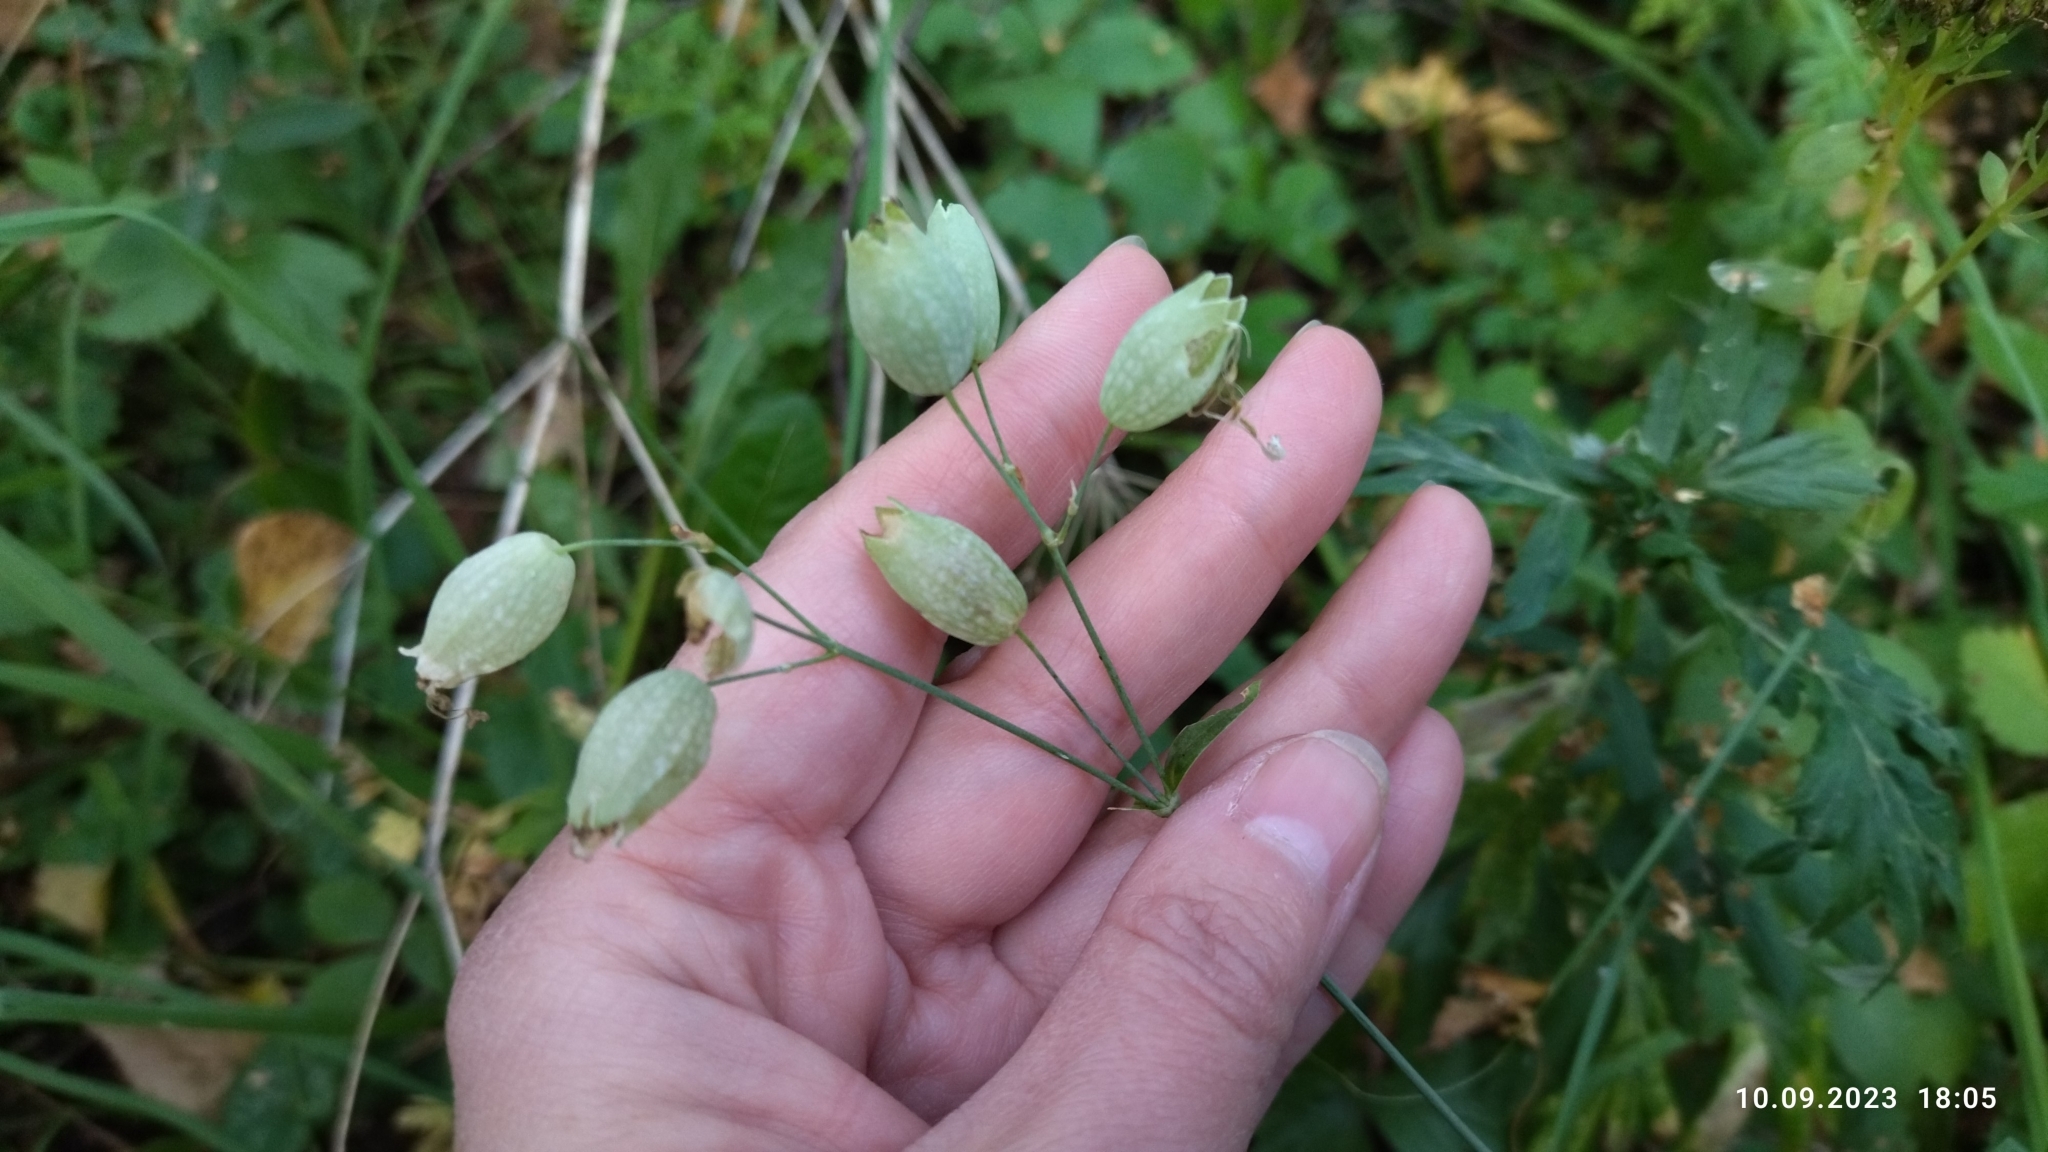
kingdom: Plantae
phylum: Tracheophyta
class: Magnoliopsida
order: Caryophyllales
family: Caryophyllaceae
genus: Silene
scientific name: Silene vulgaris
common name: Bladder campion
